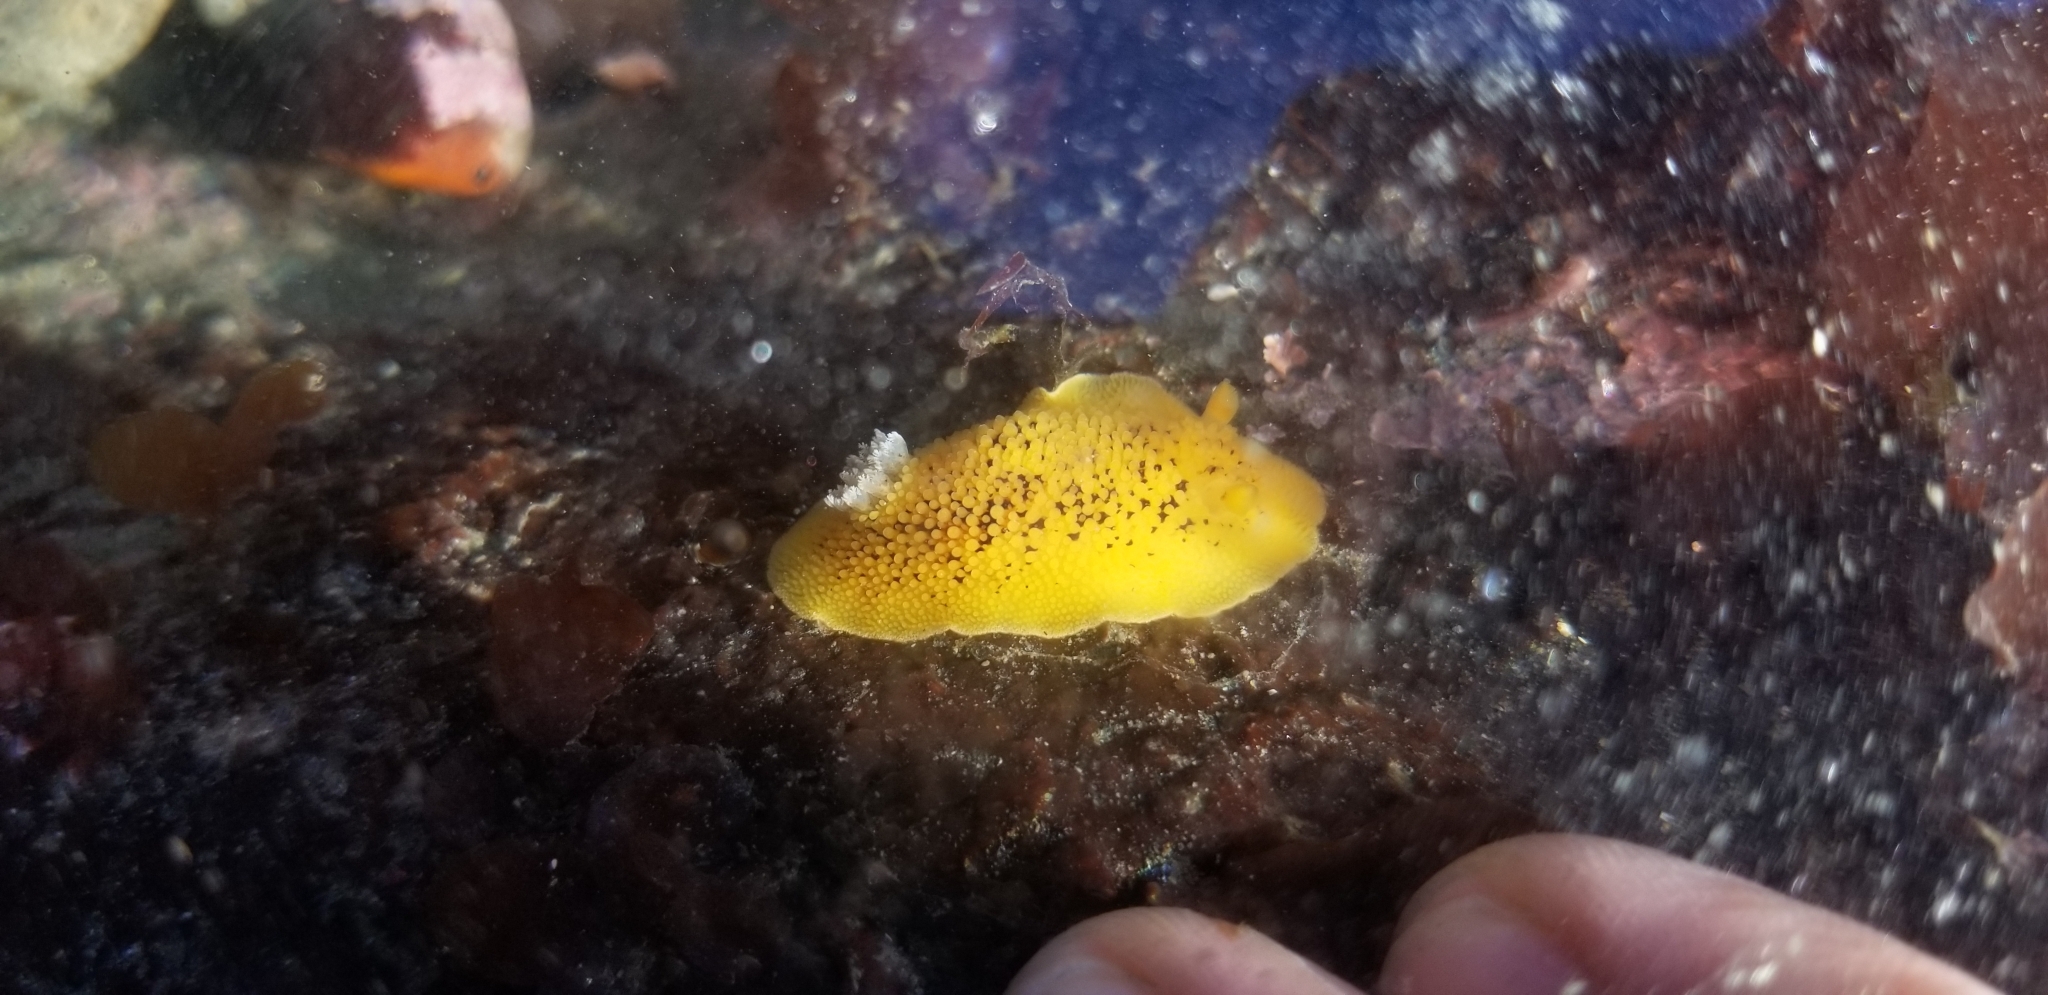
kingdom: Animalia
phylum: Mollusca
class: Gastropoda
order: Nudibranchia
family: Discodorididae
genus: Peltodoris
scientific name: Peltodoris nobilis
